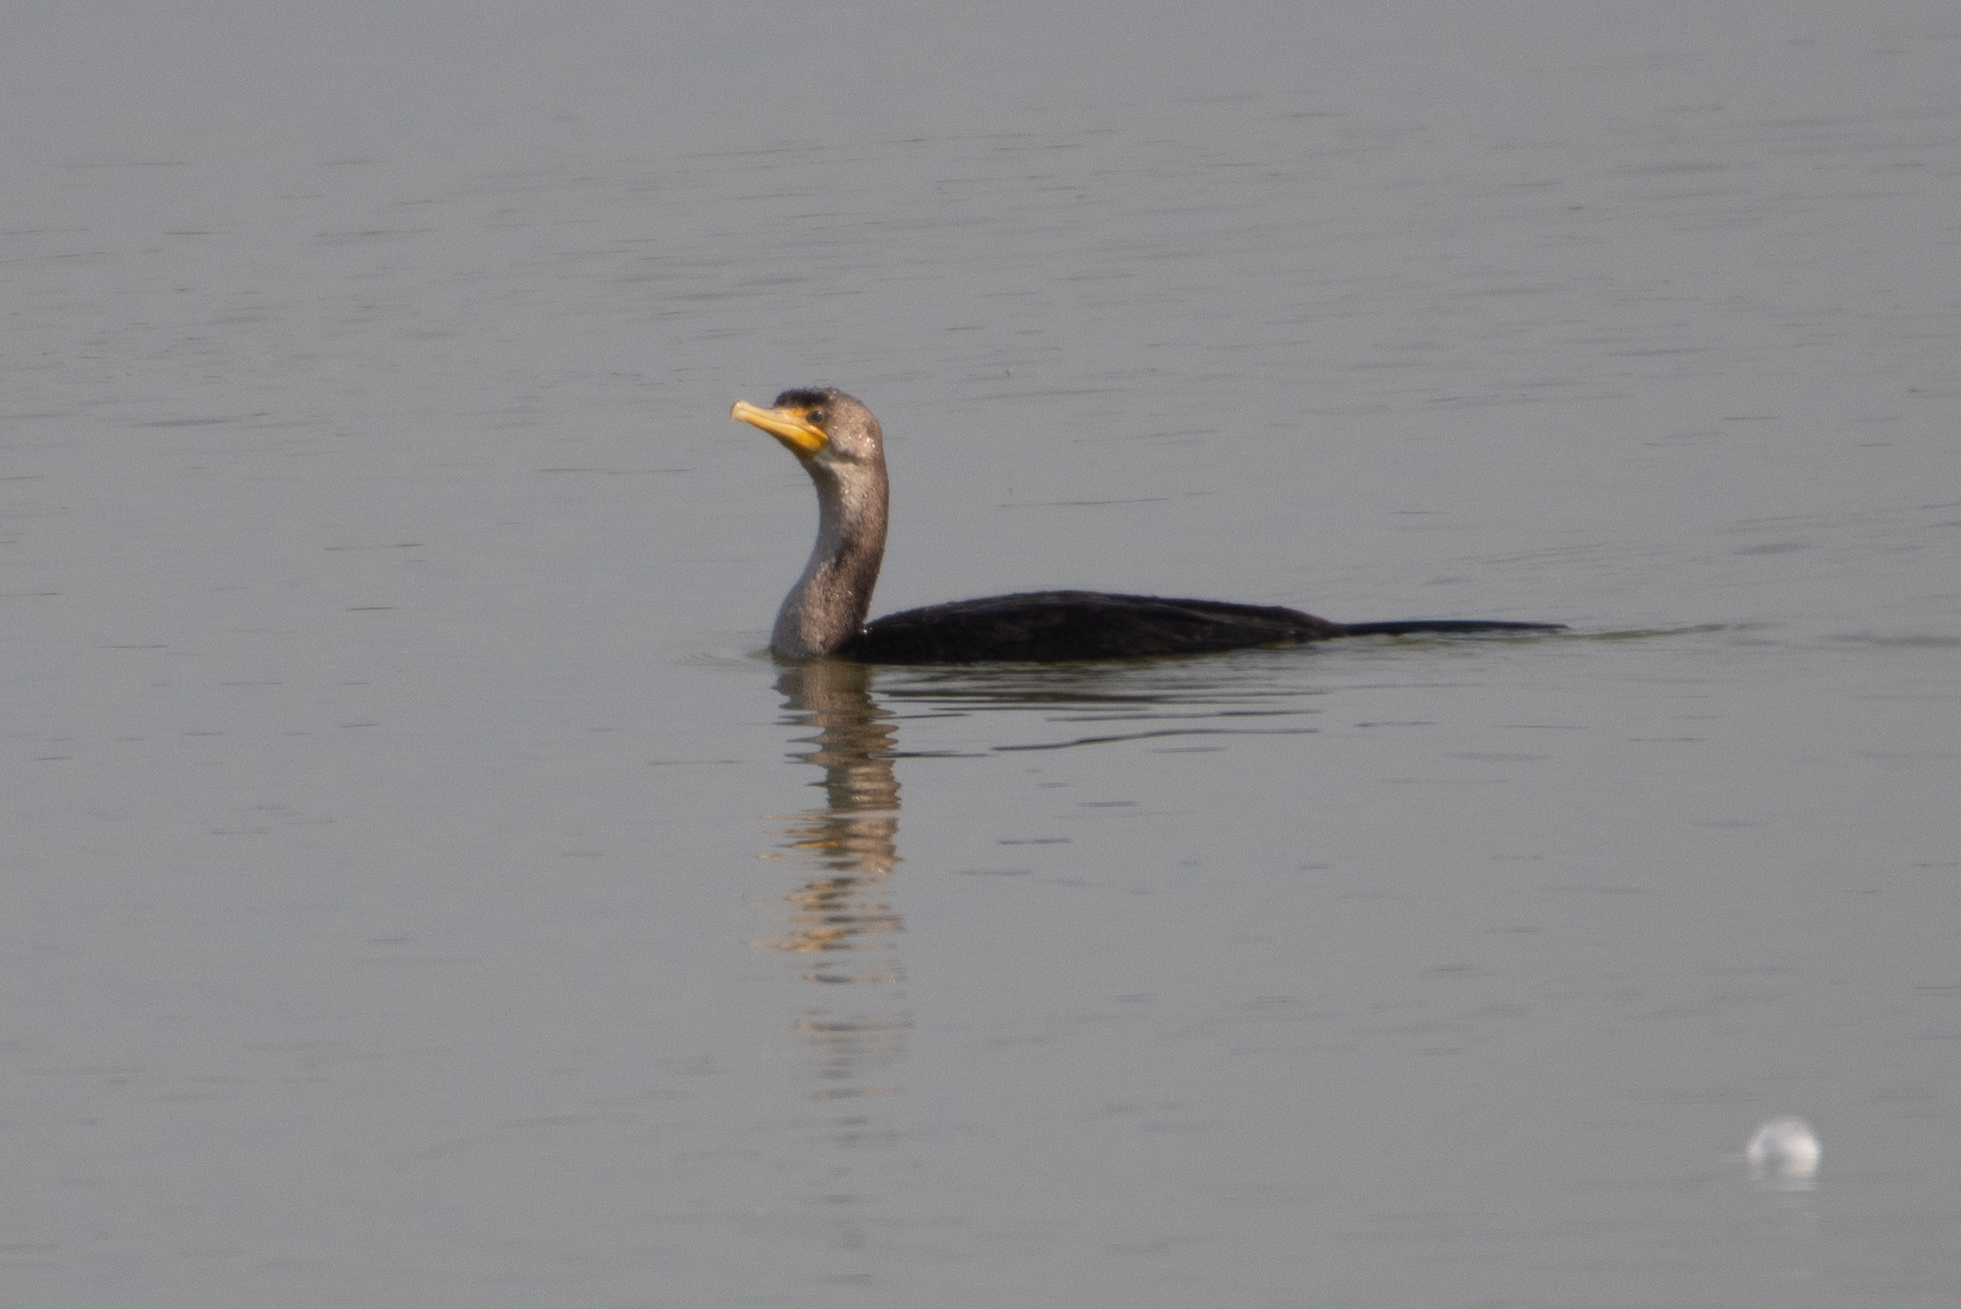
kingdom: Animalia
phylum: Chordata
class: Aves
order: Suliformes
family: Phalacrocoracidae
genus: Phalacrocorax
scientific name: Phalacrocorax auritus
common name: Double-crested cormorant
